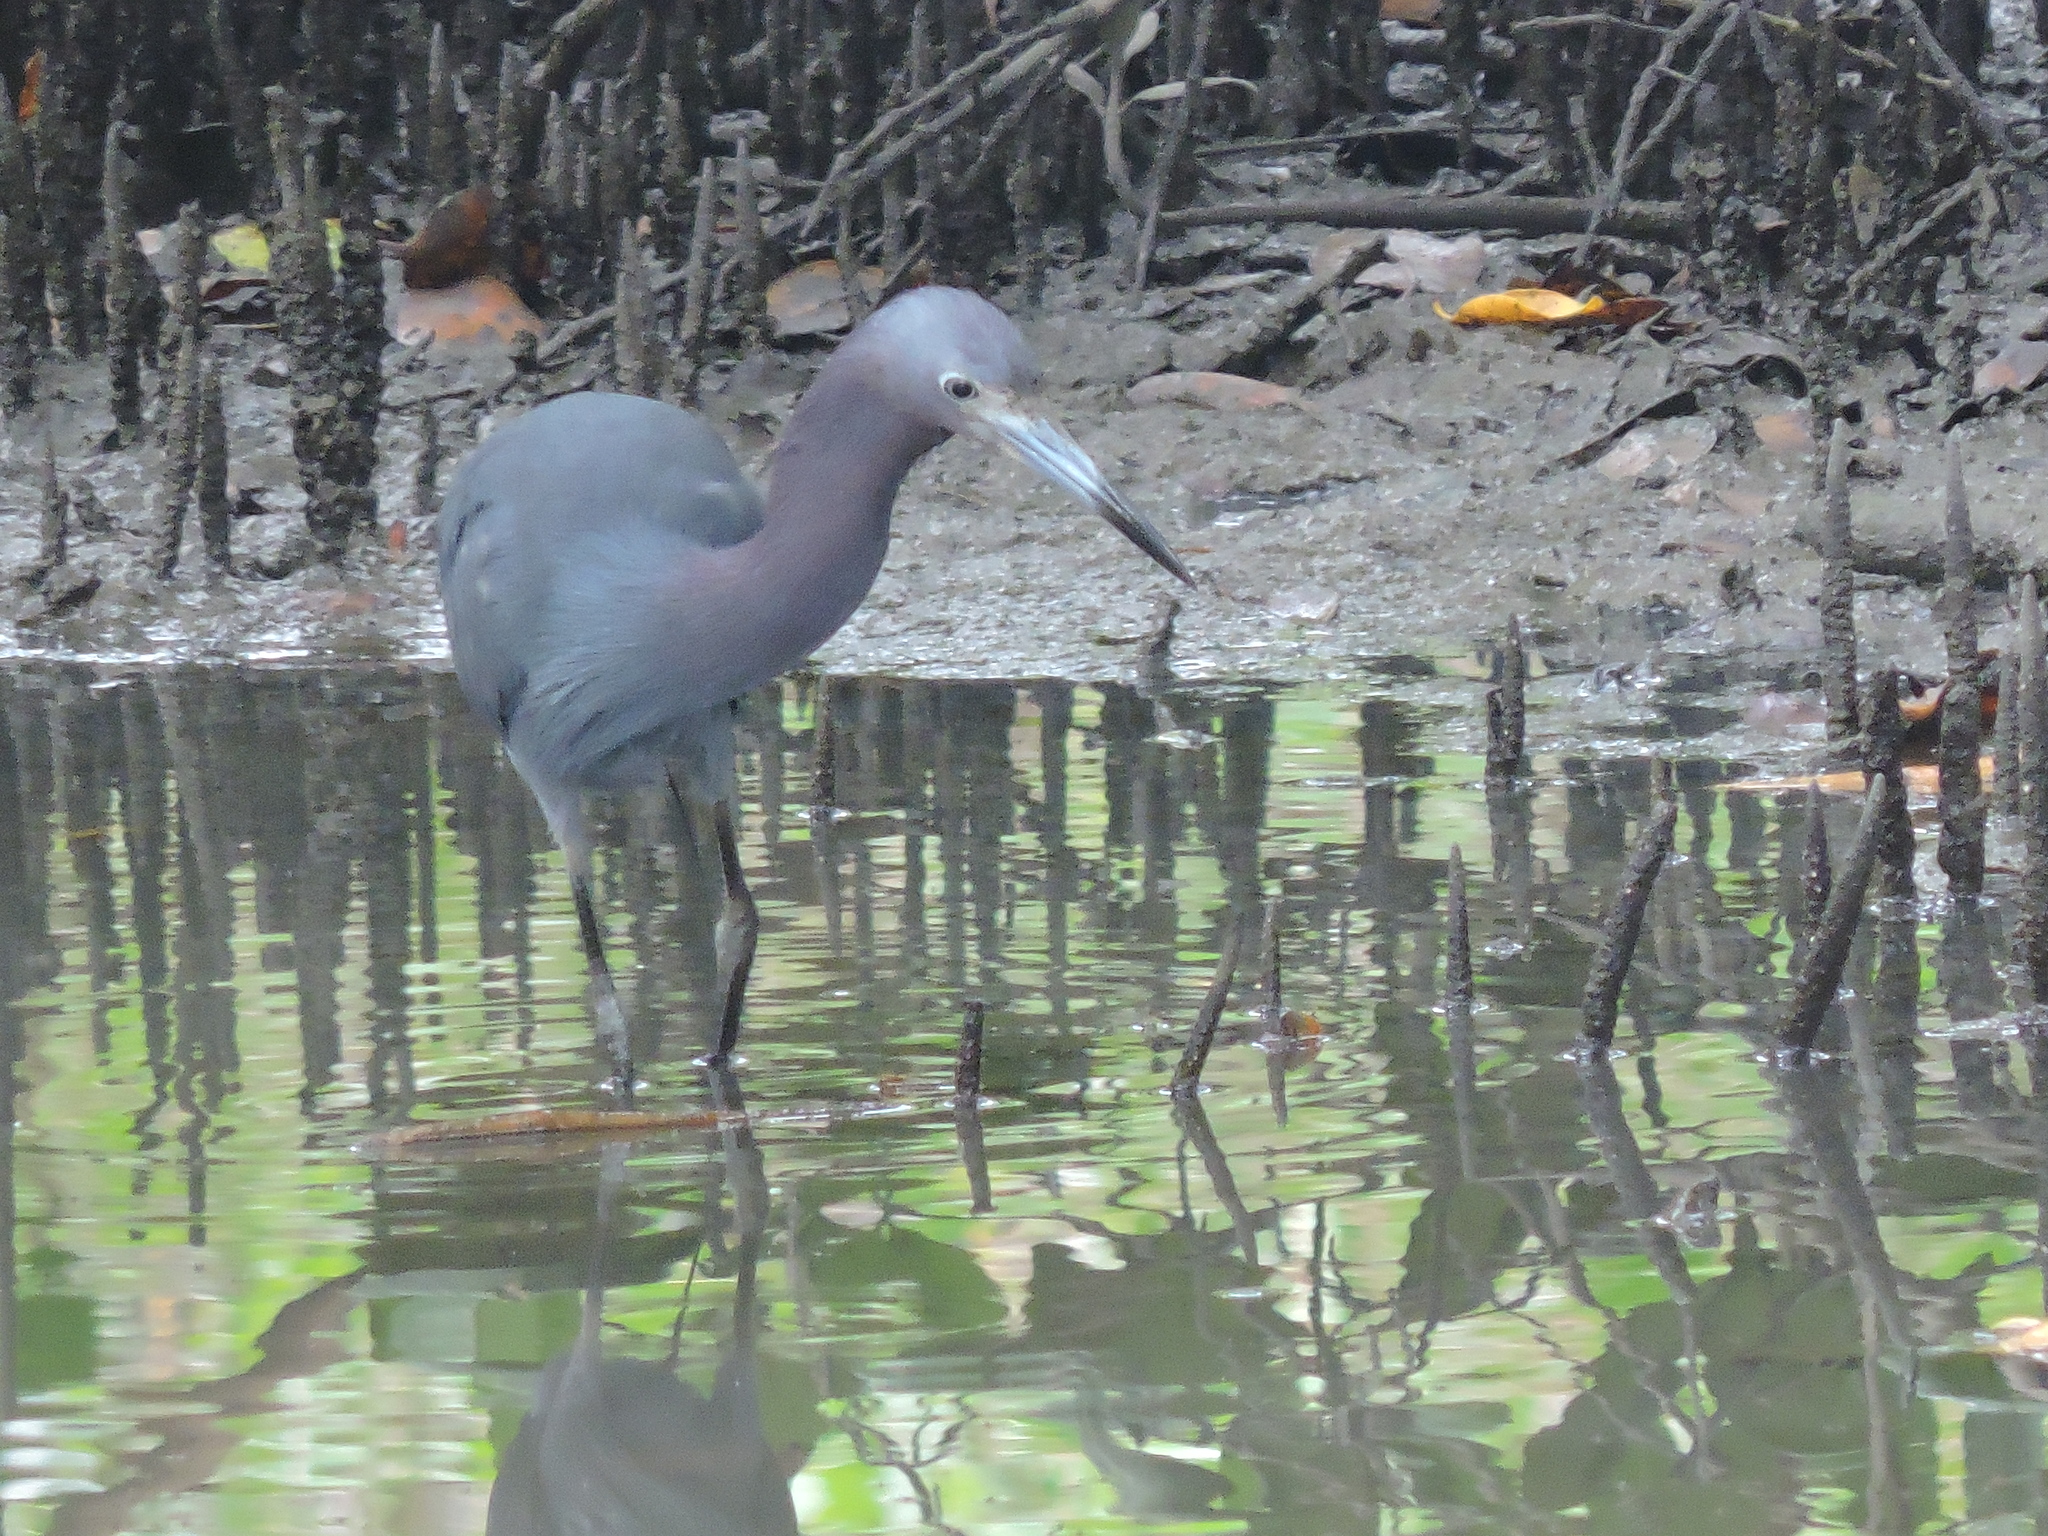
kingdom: Animalia
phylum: Chordata
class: Aves
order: Pelecaniformes
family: Ardeidae
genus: Egretta
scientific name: Egretta caerulea
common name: Little blue heron
